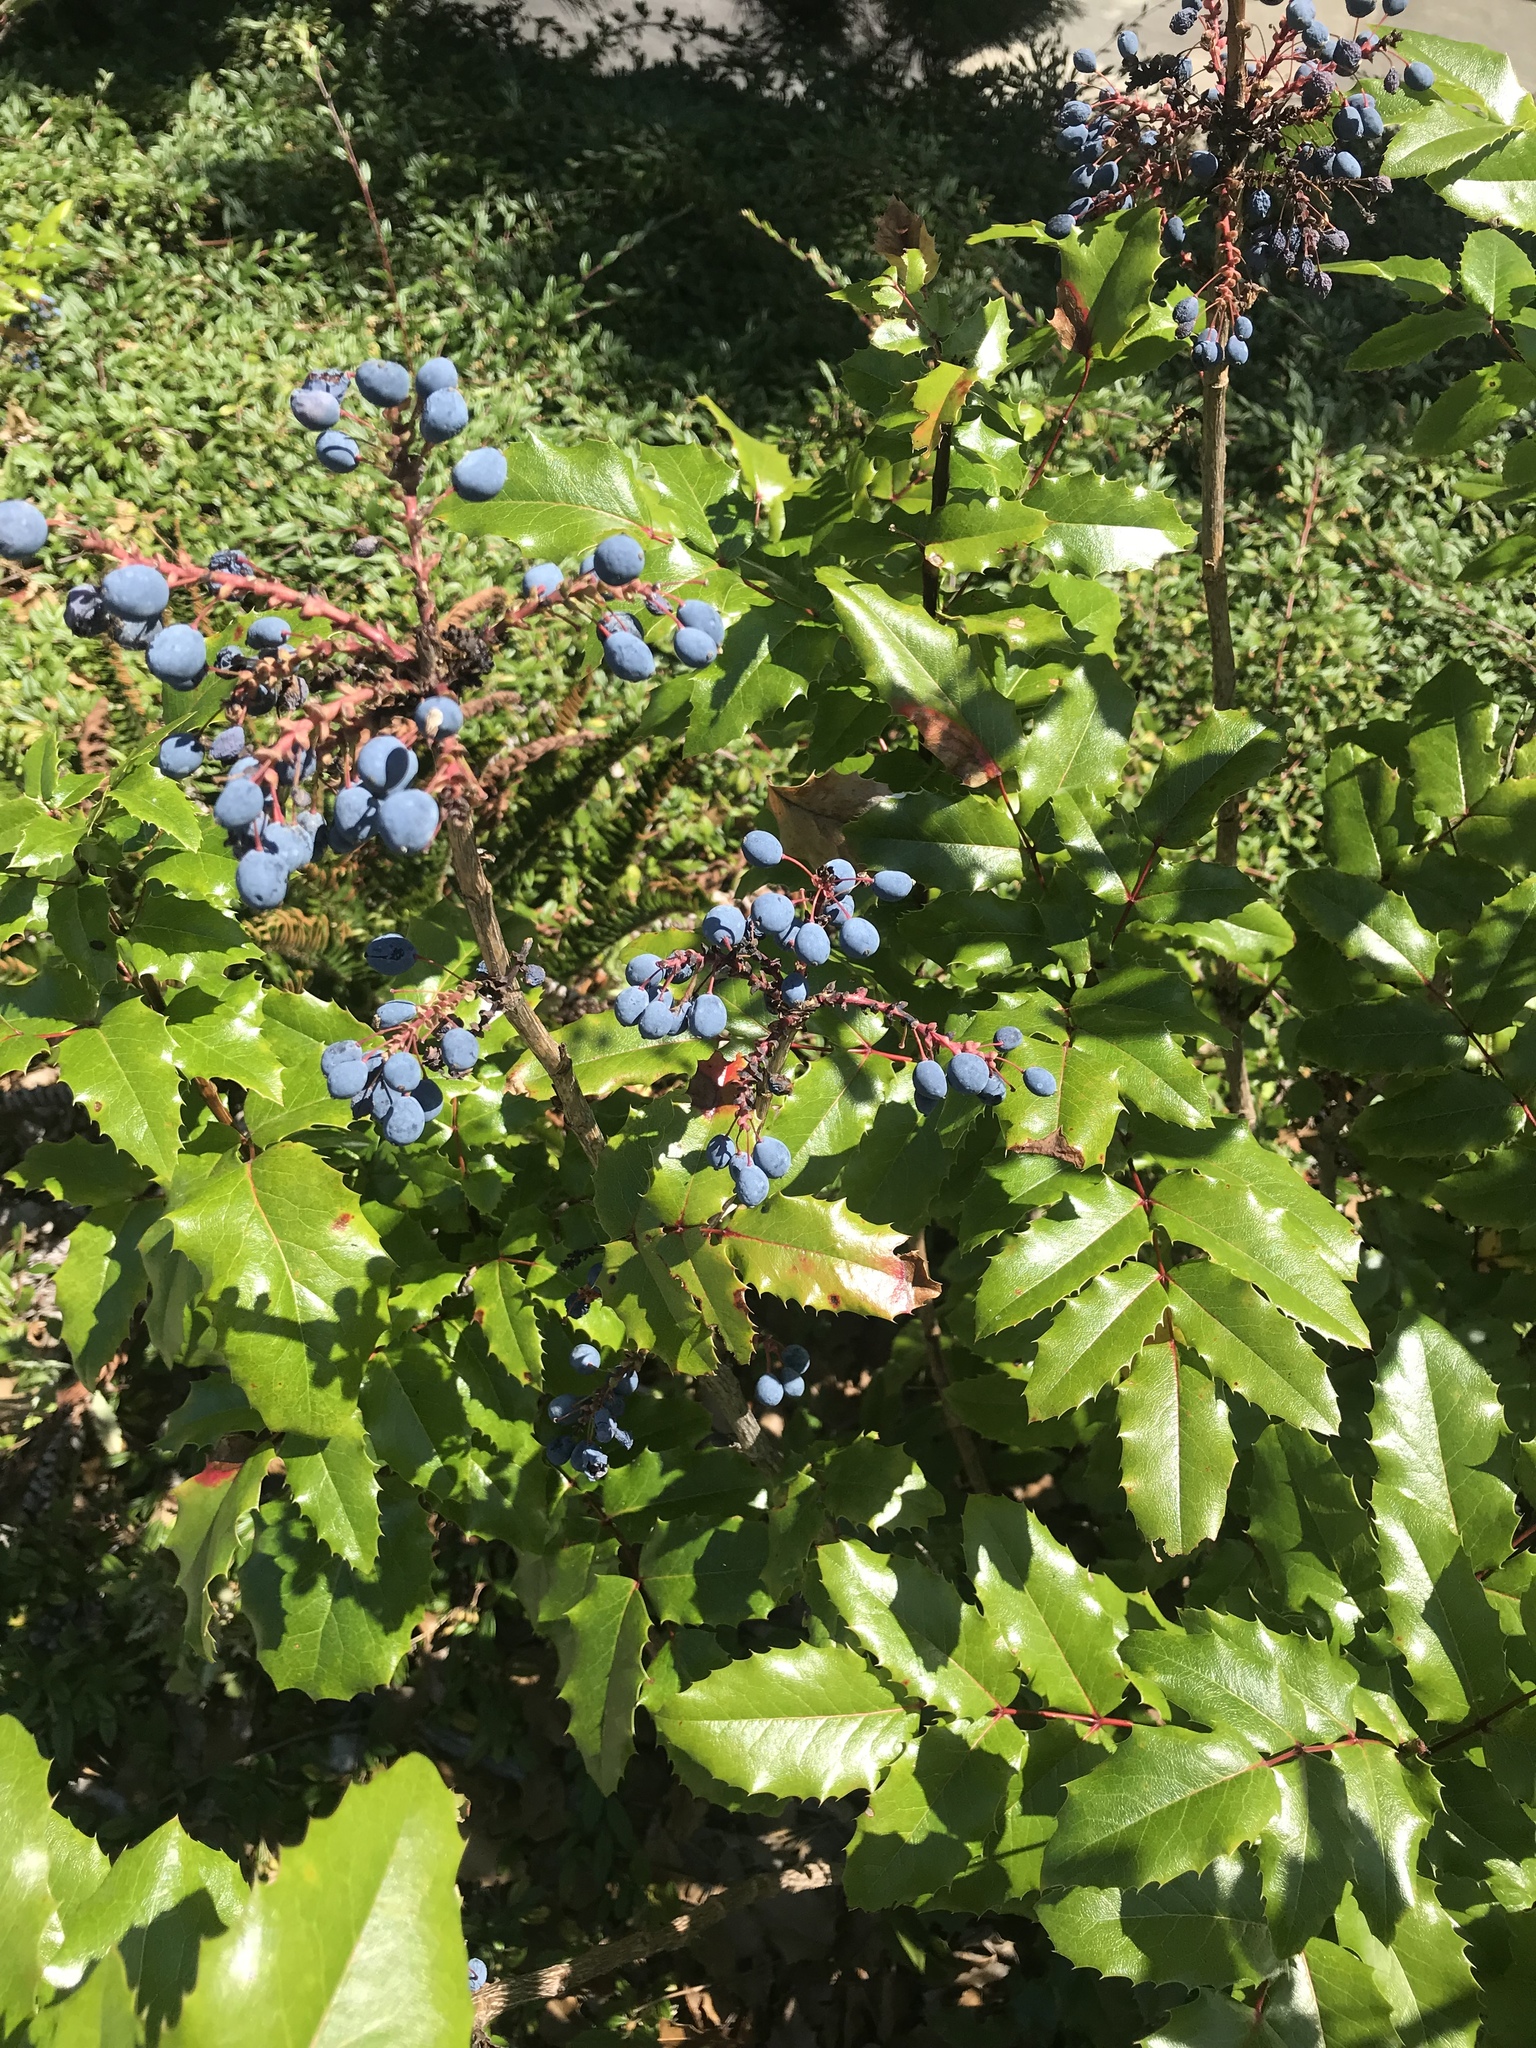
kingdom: Plantae
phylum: Tracheophyta
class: Magnoliopsida
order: Ranunculales
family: Berberidaceae
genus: Mahonia
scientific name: Mahonia aquifolium
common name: Oregon-grape
